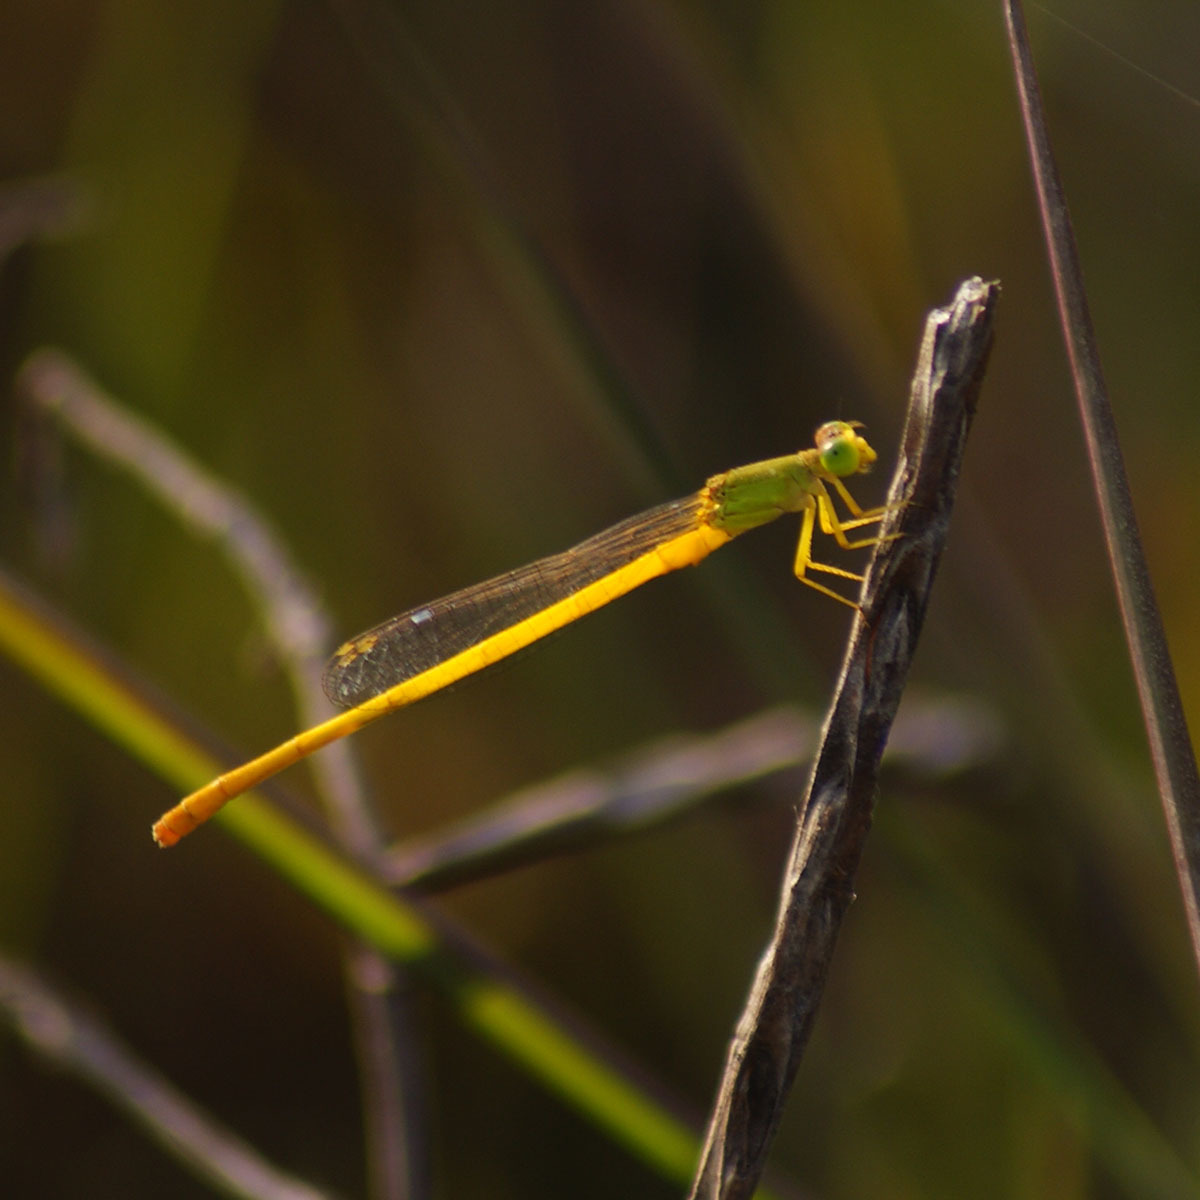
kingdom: Animalia
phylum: Arthropoda
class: Insecta
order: Odonata
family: Coenagrionidae
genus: Ceriagrion
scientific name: Ceriagrion coromandelianum
